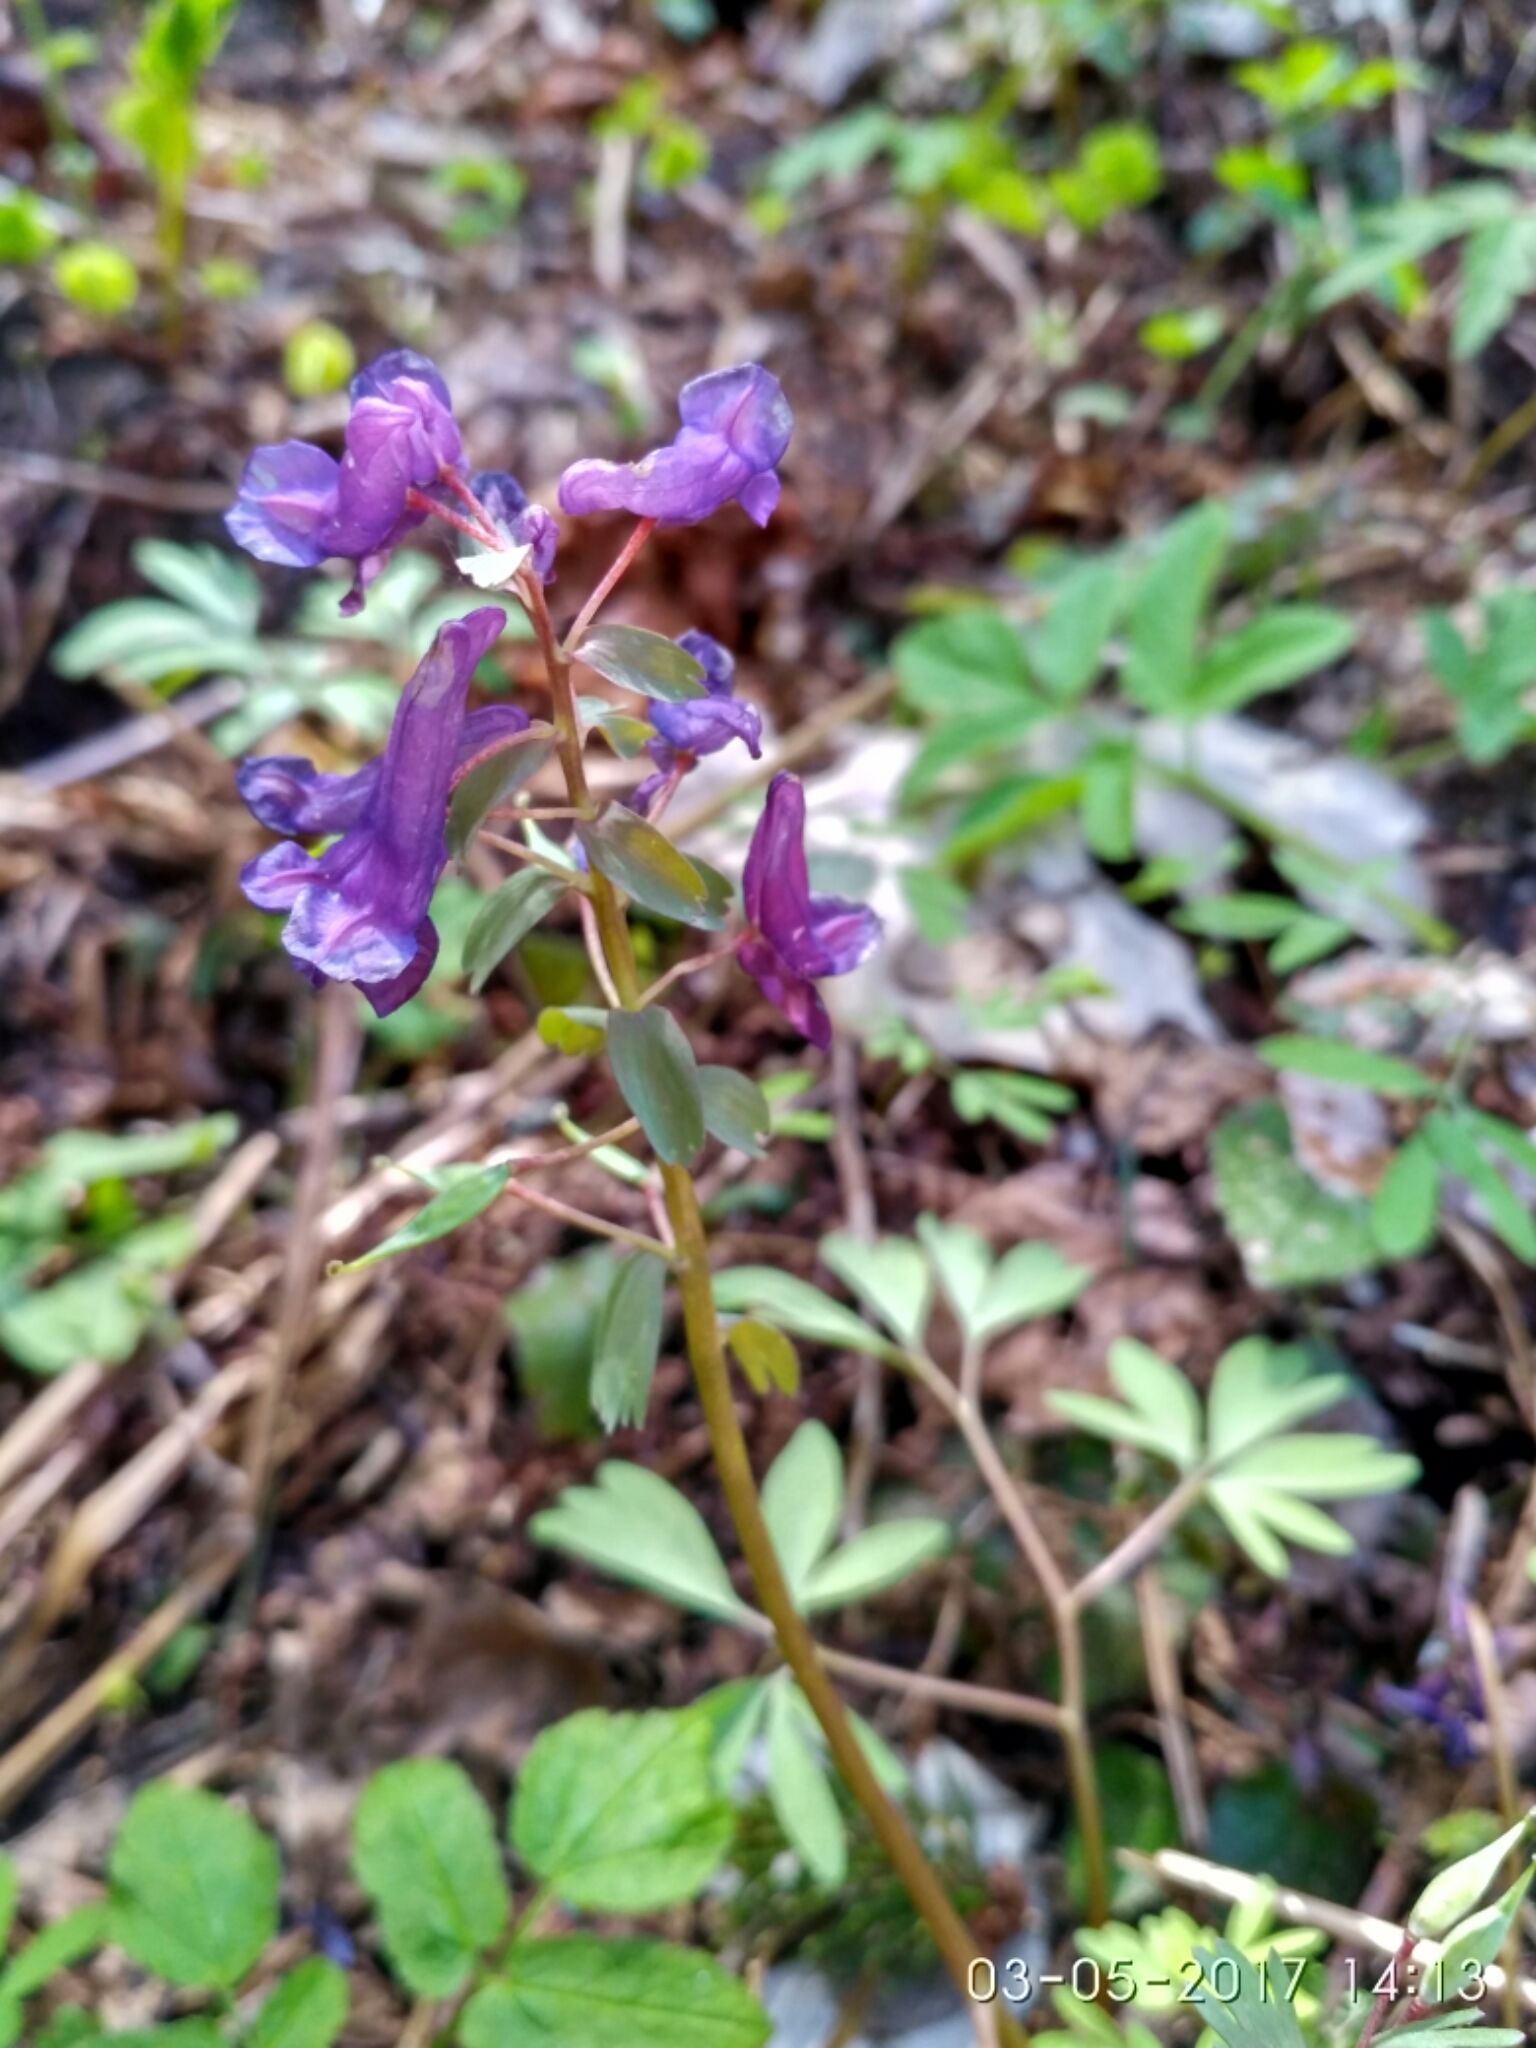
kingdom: Plantae
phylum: Tracheophyta
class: Magnoliopsida
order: Ranunculales
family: Papaveraceae
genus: Corydalis
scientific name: Corydalis solida
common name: Bird-in-a-bush
